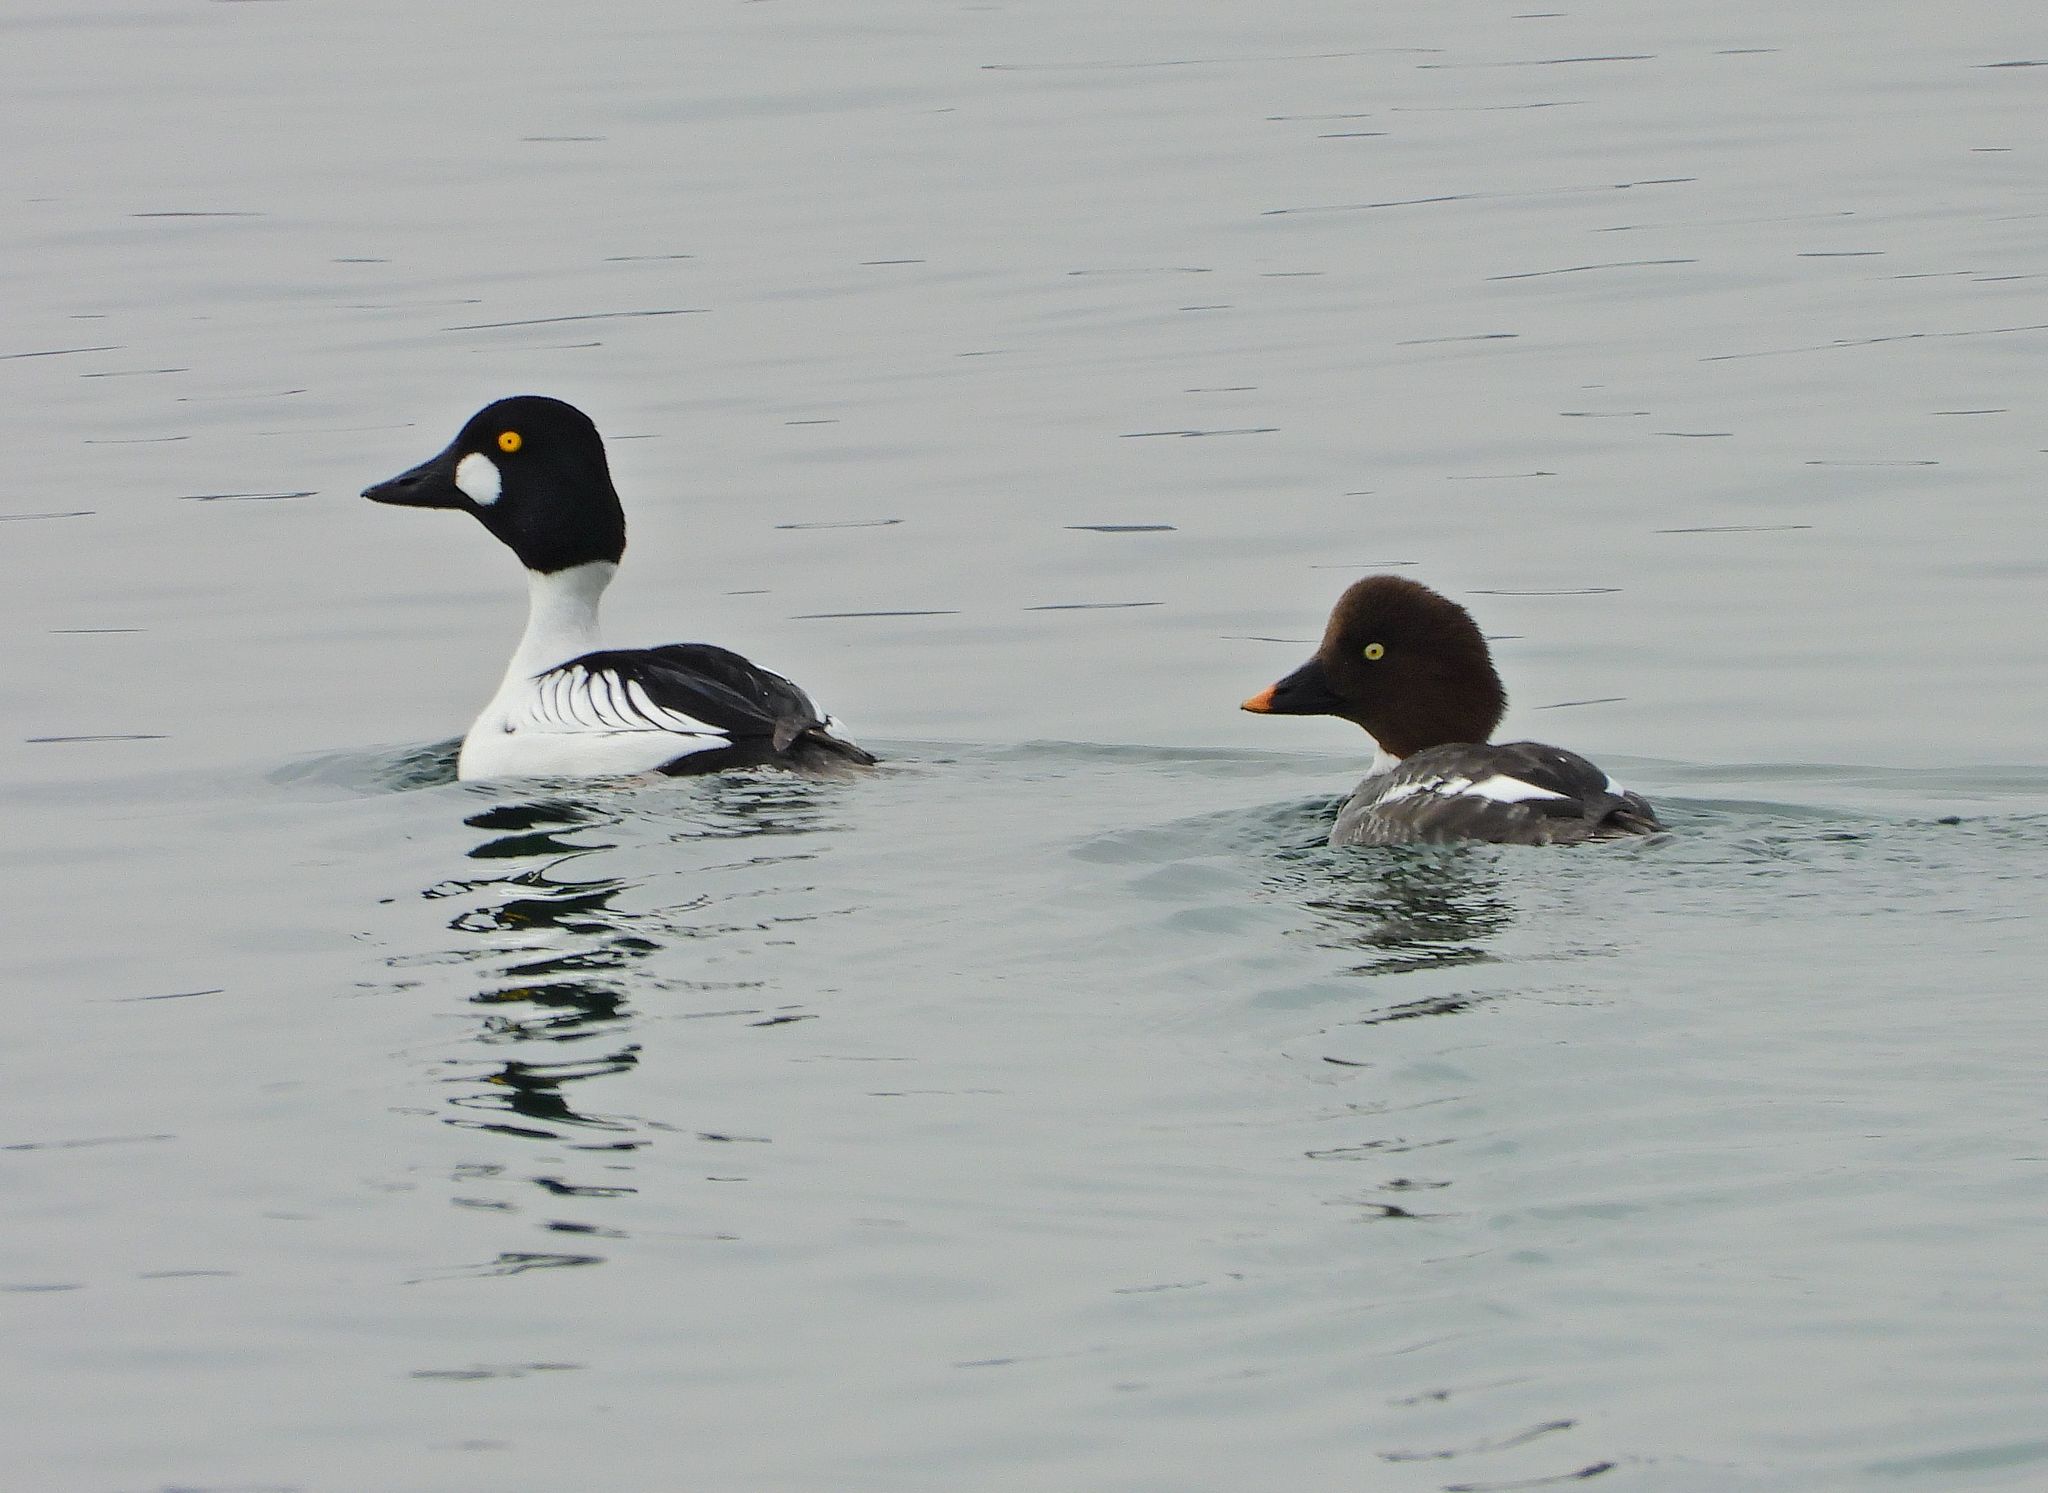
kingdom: Animalia
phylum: Chordata
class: Aves
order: Anseriformes
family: Anatidae
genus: Bucephala
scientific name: Bucephala clangula
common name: Common goldeneye
